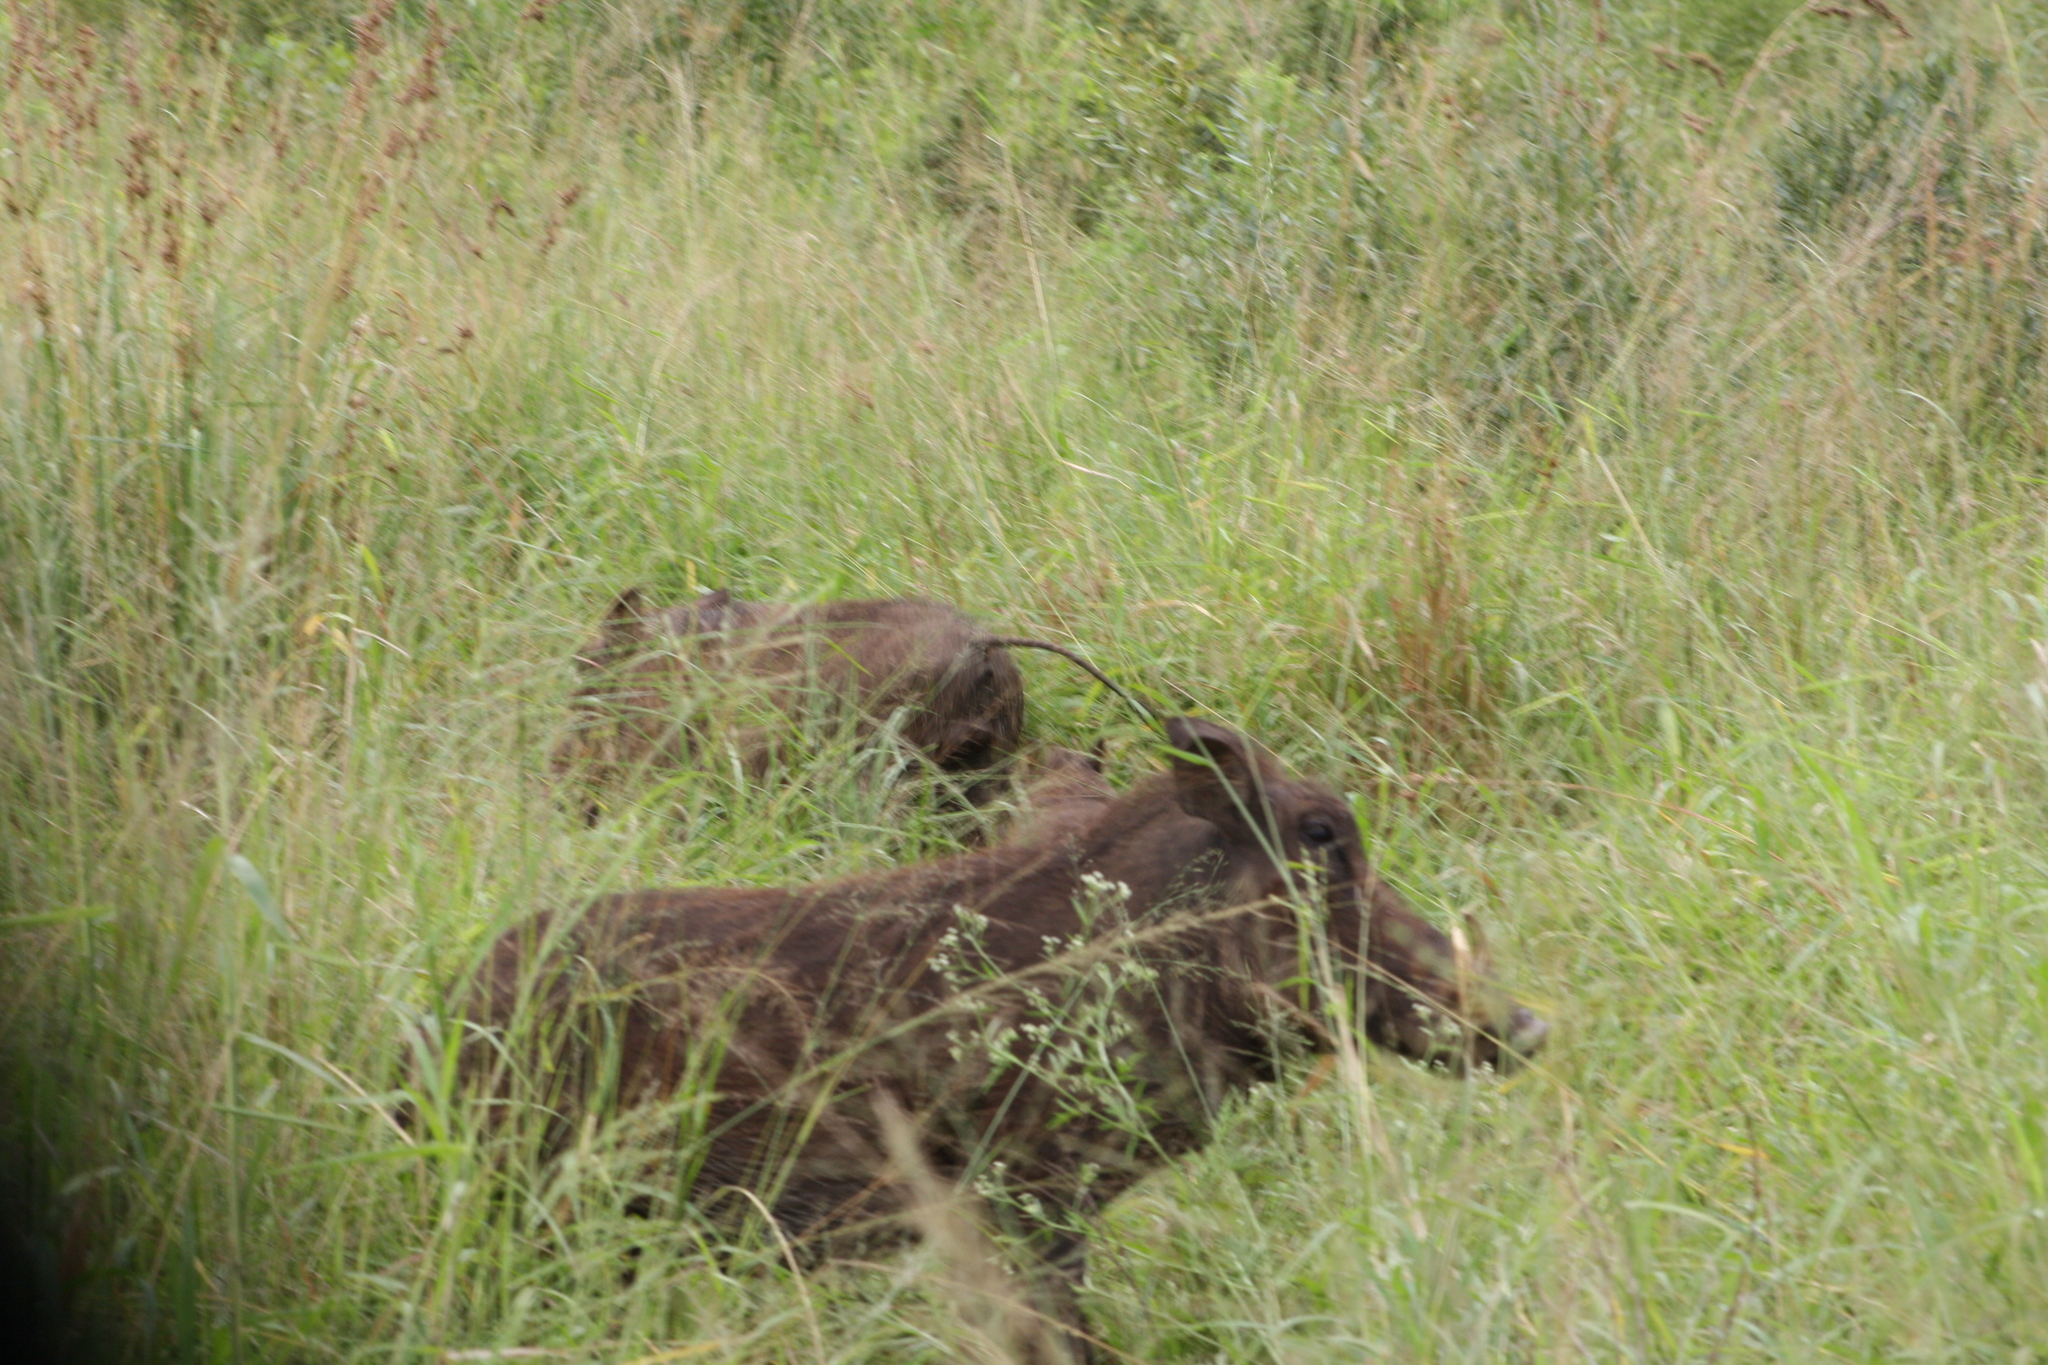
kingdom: Animalia
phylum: Chordata
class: Mammalia
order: Artiodactyla
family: Suidae
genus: Phacochoerus
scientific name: Phacochoerus africanus
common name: Common warthog
